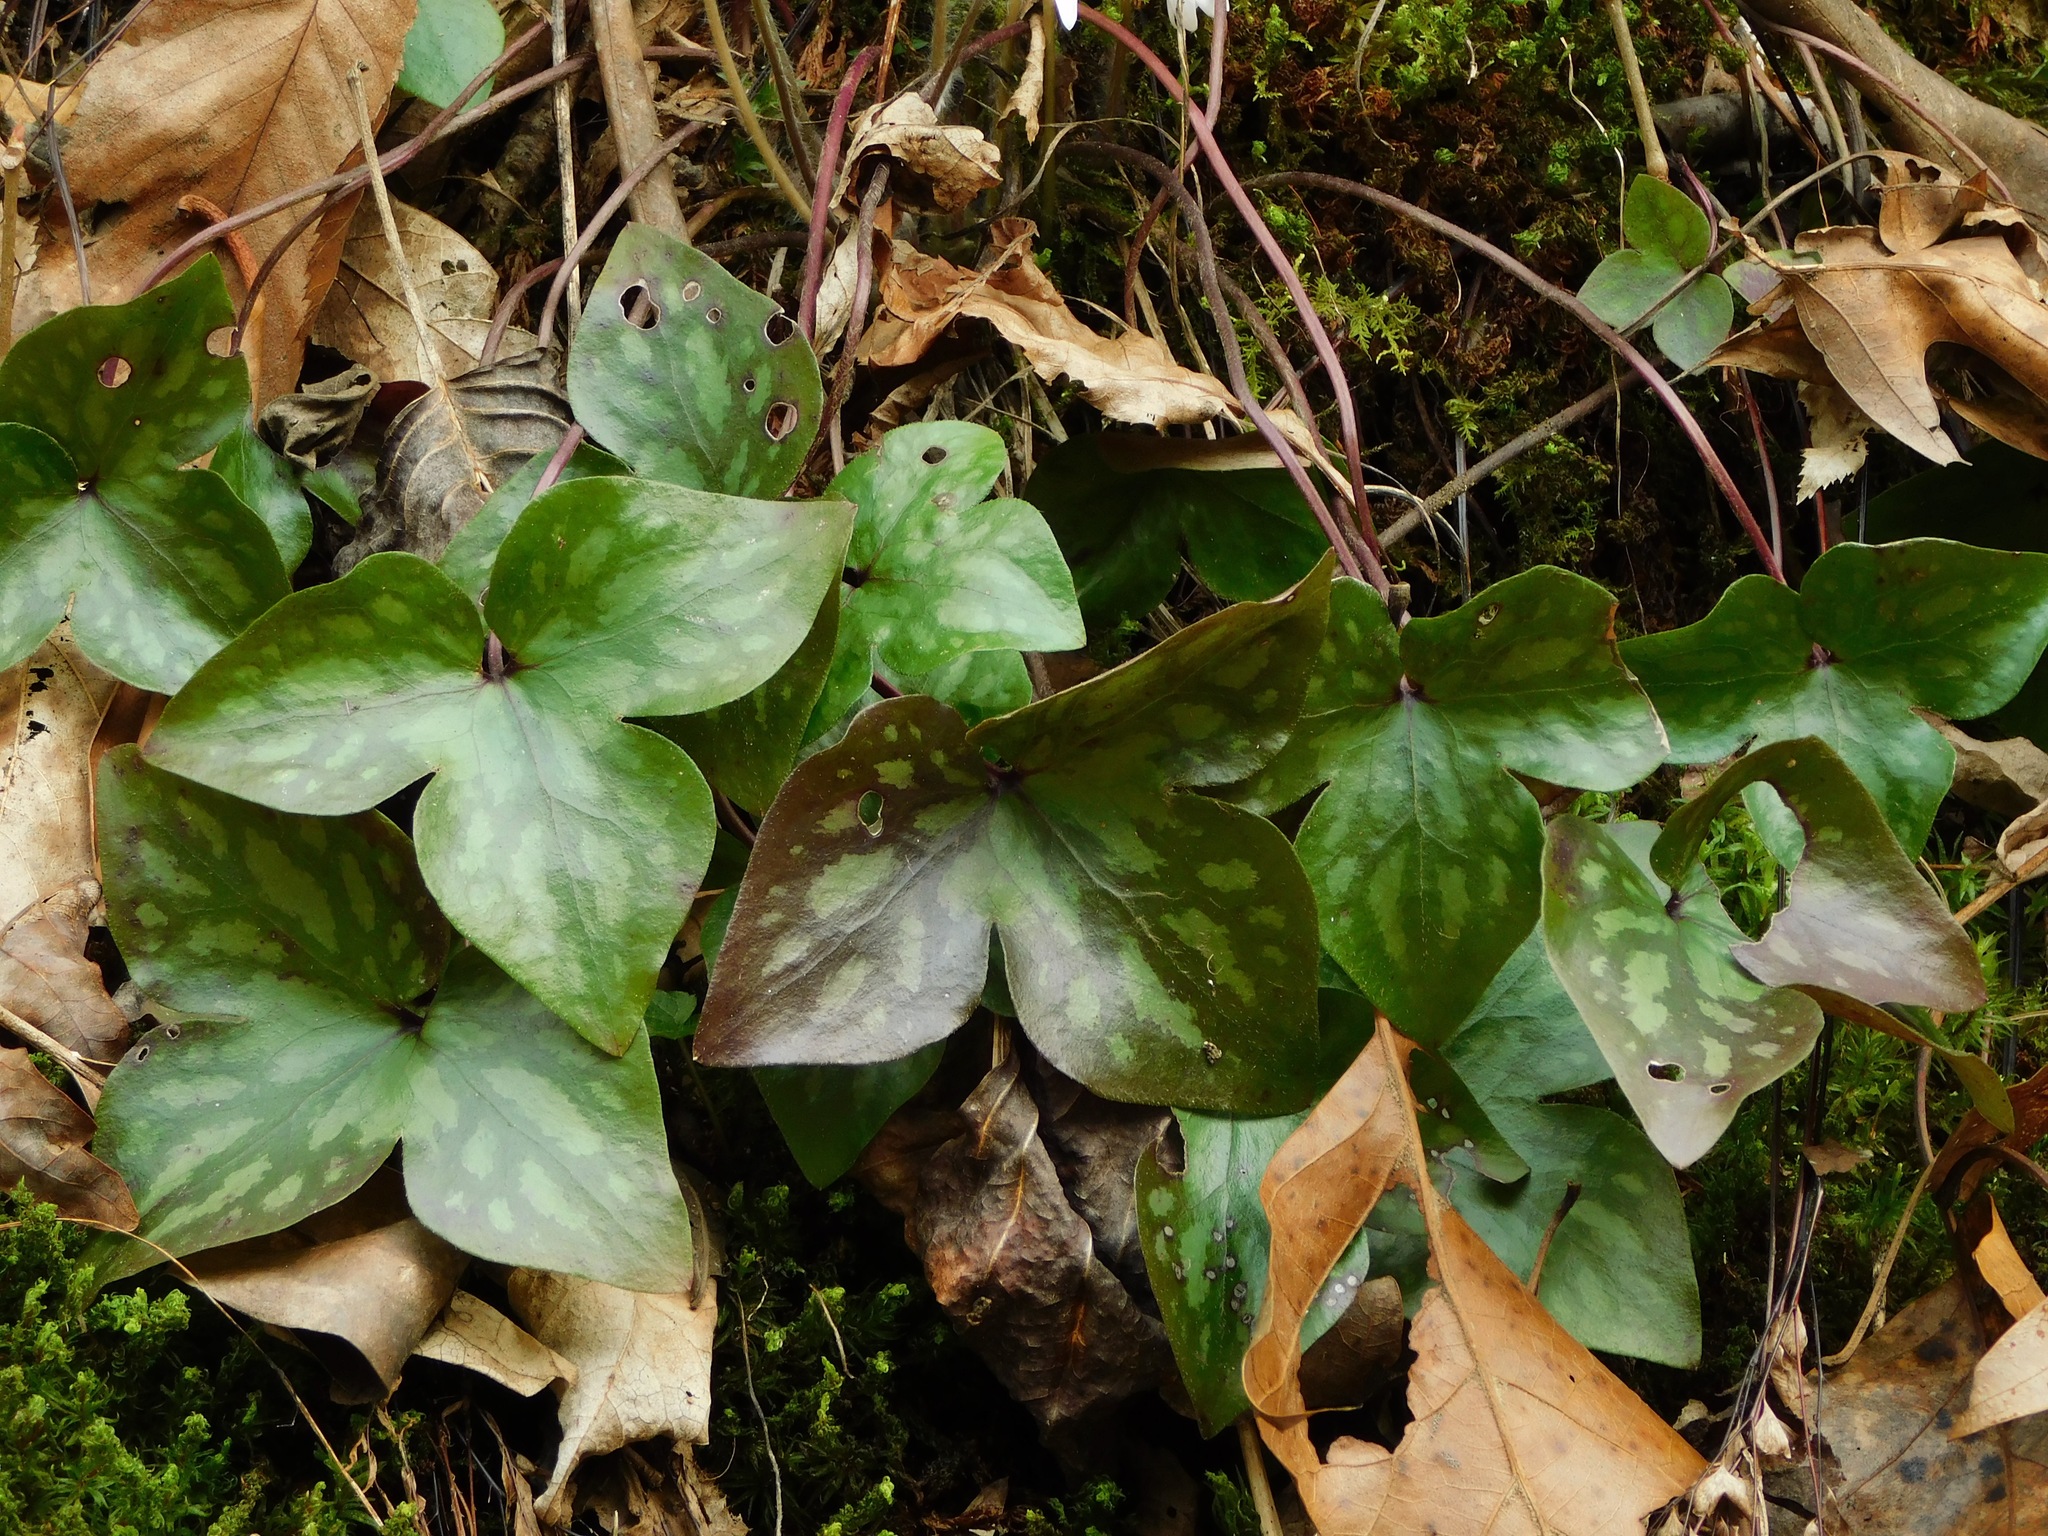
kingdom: Plantae
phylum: Tracheophyta
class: Magnoliopsida
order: Ranunculales
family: Ranunculaceae
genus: Hepatica
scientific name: Hepatica acutiloba
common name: Sharp-lobed hepatica
